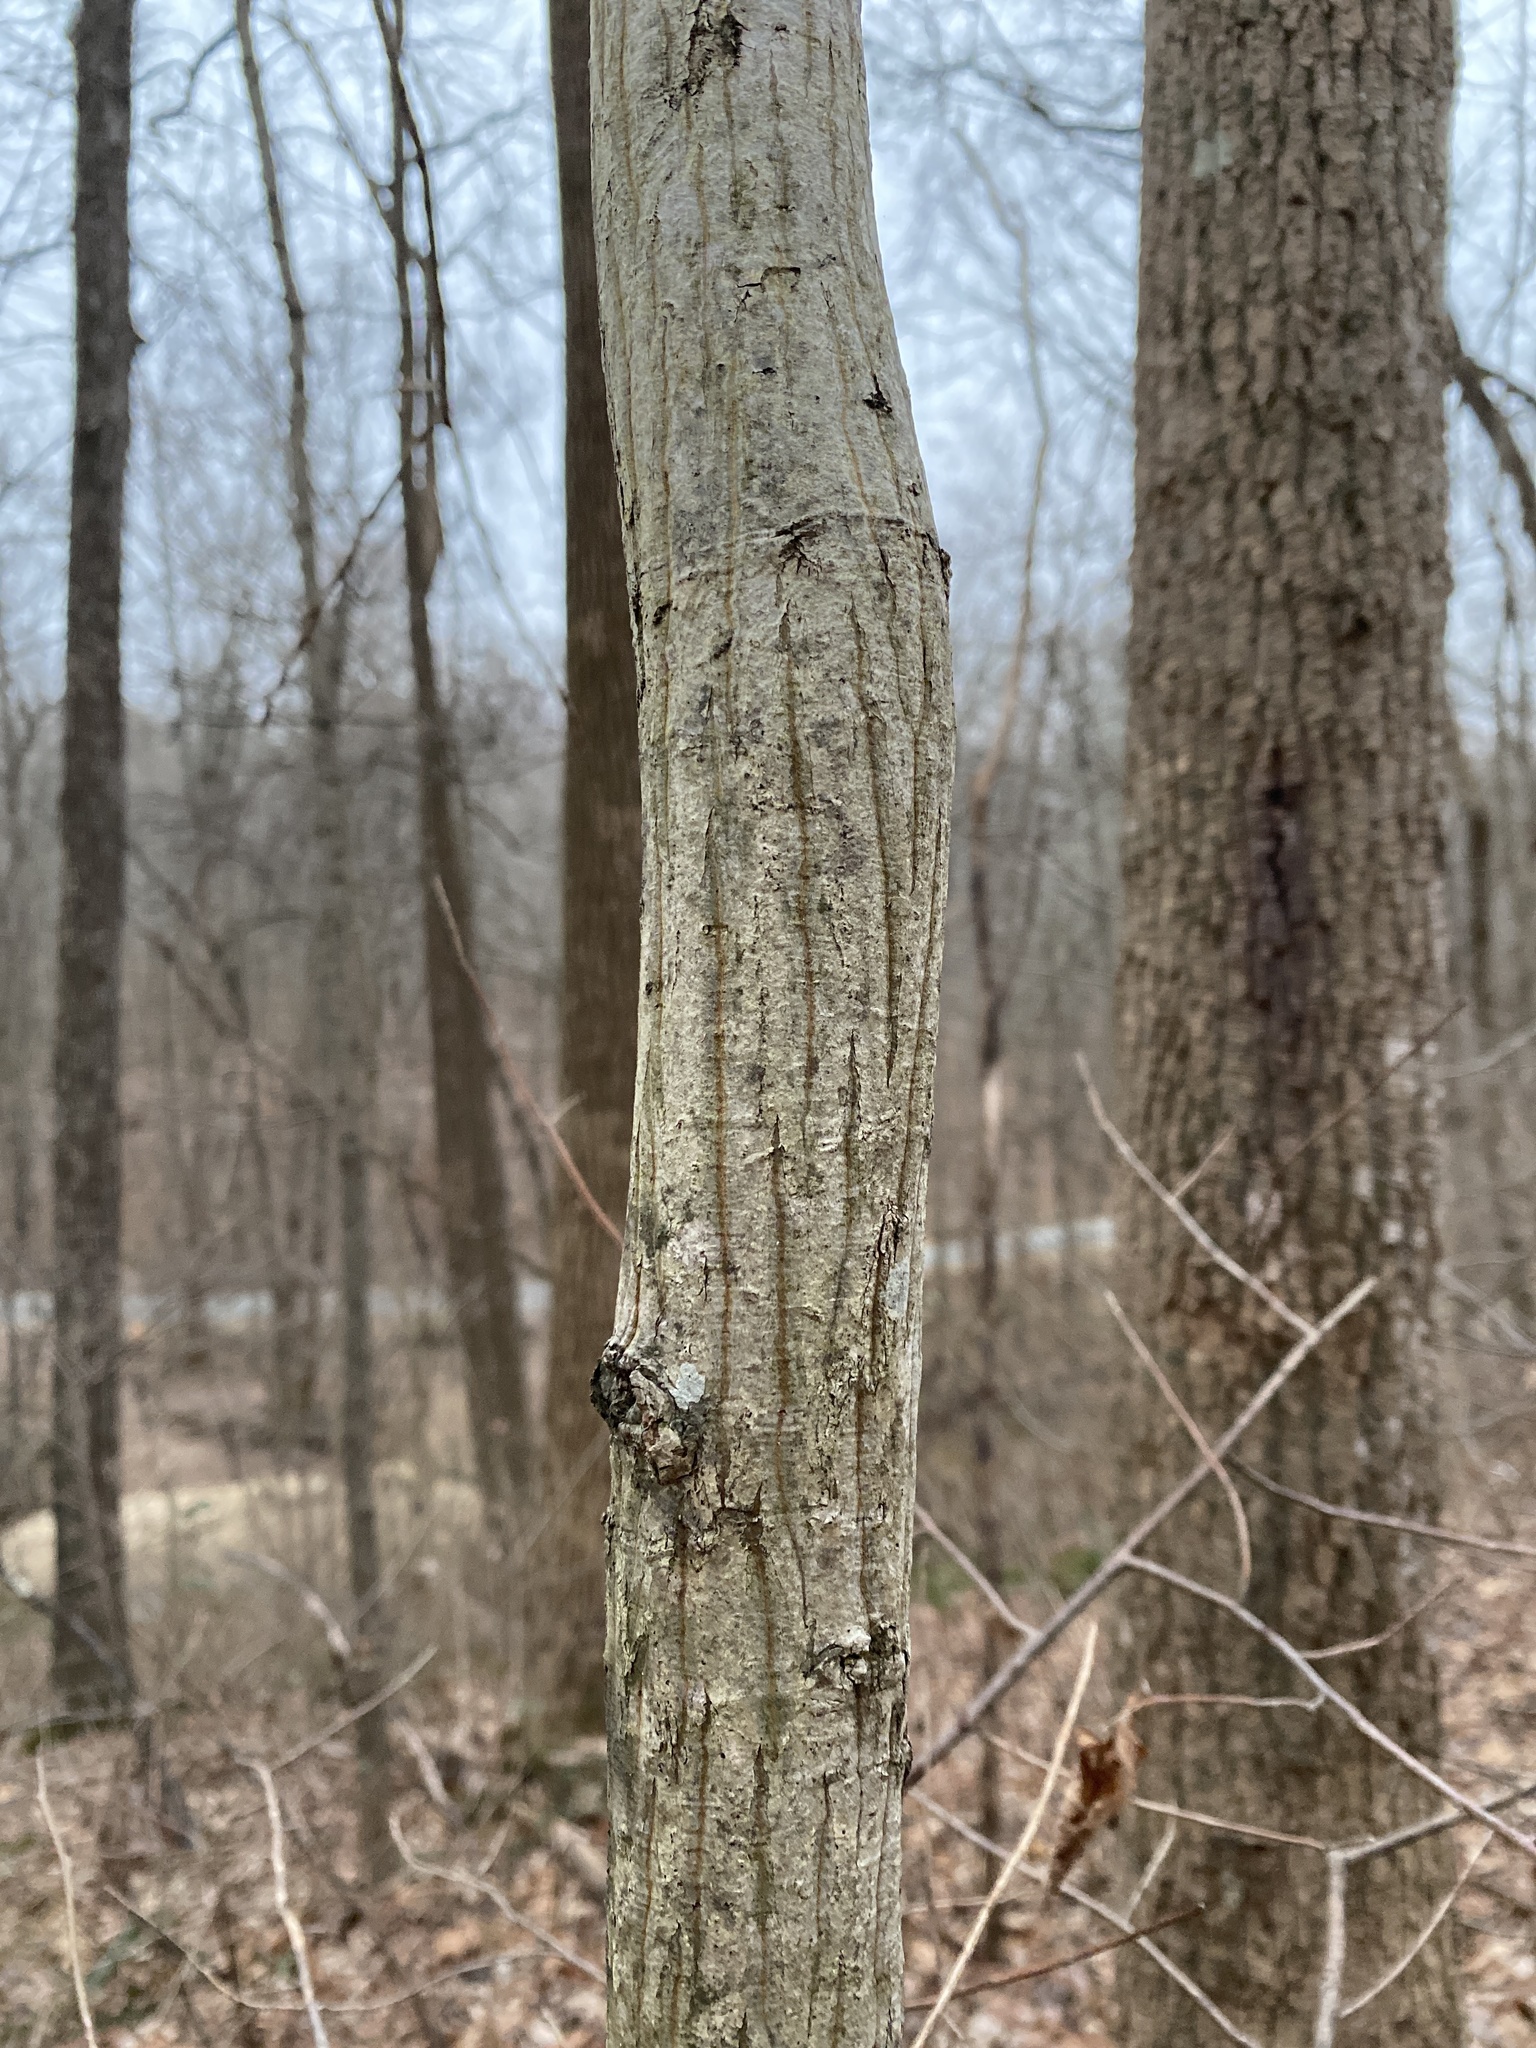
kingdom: Plantae
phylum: Tracheophyta
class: Magnoliopsida
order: Fagales
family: Juglandaceae
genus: Carya
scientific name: Carya cordiformis
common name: Bitternut hickory
